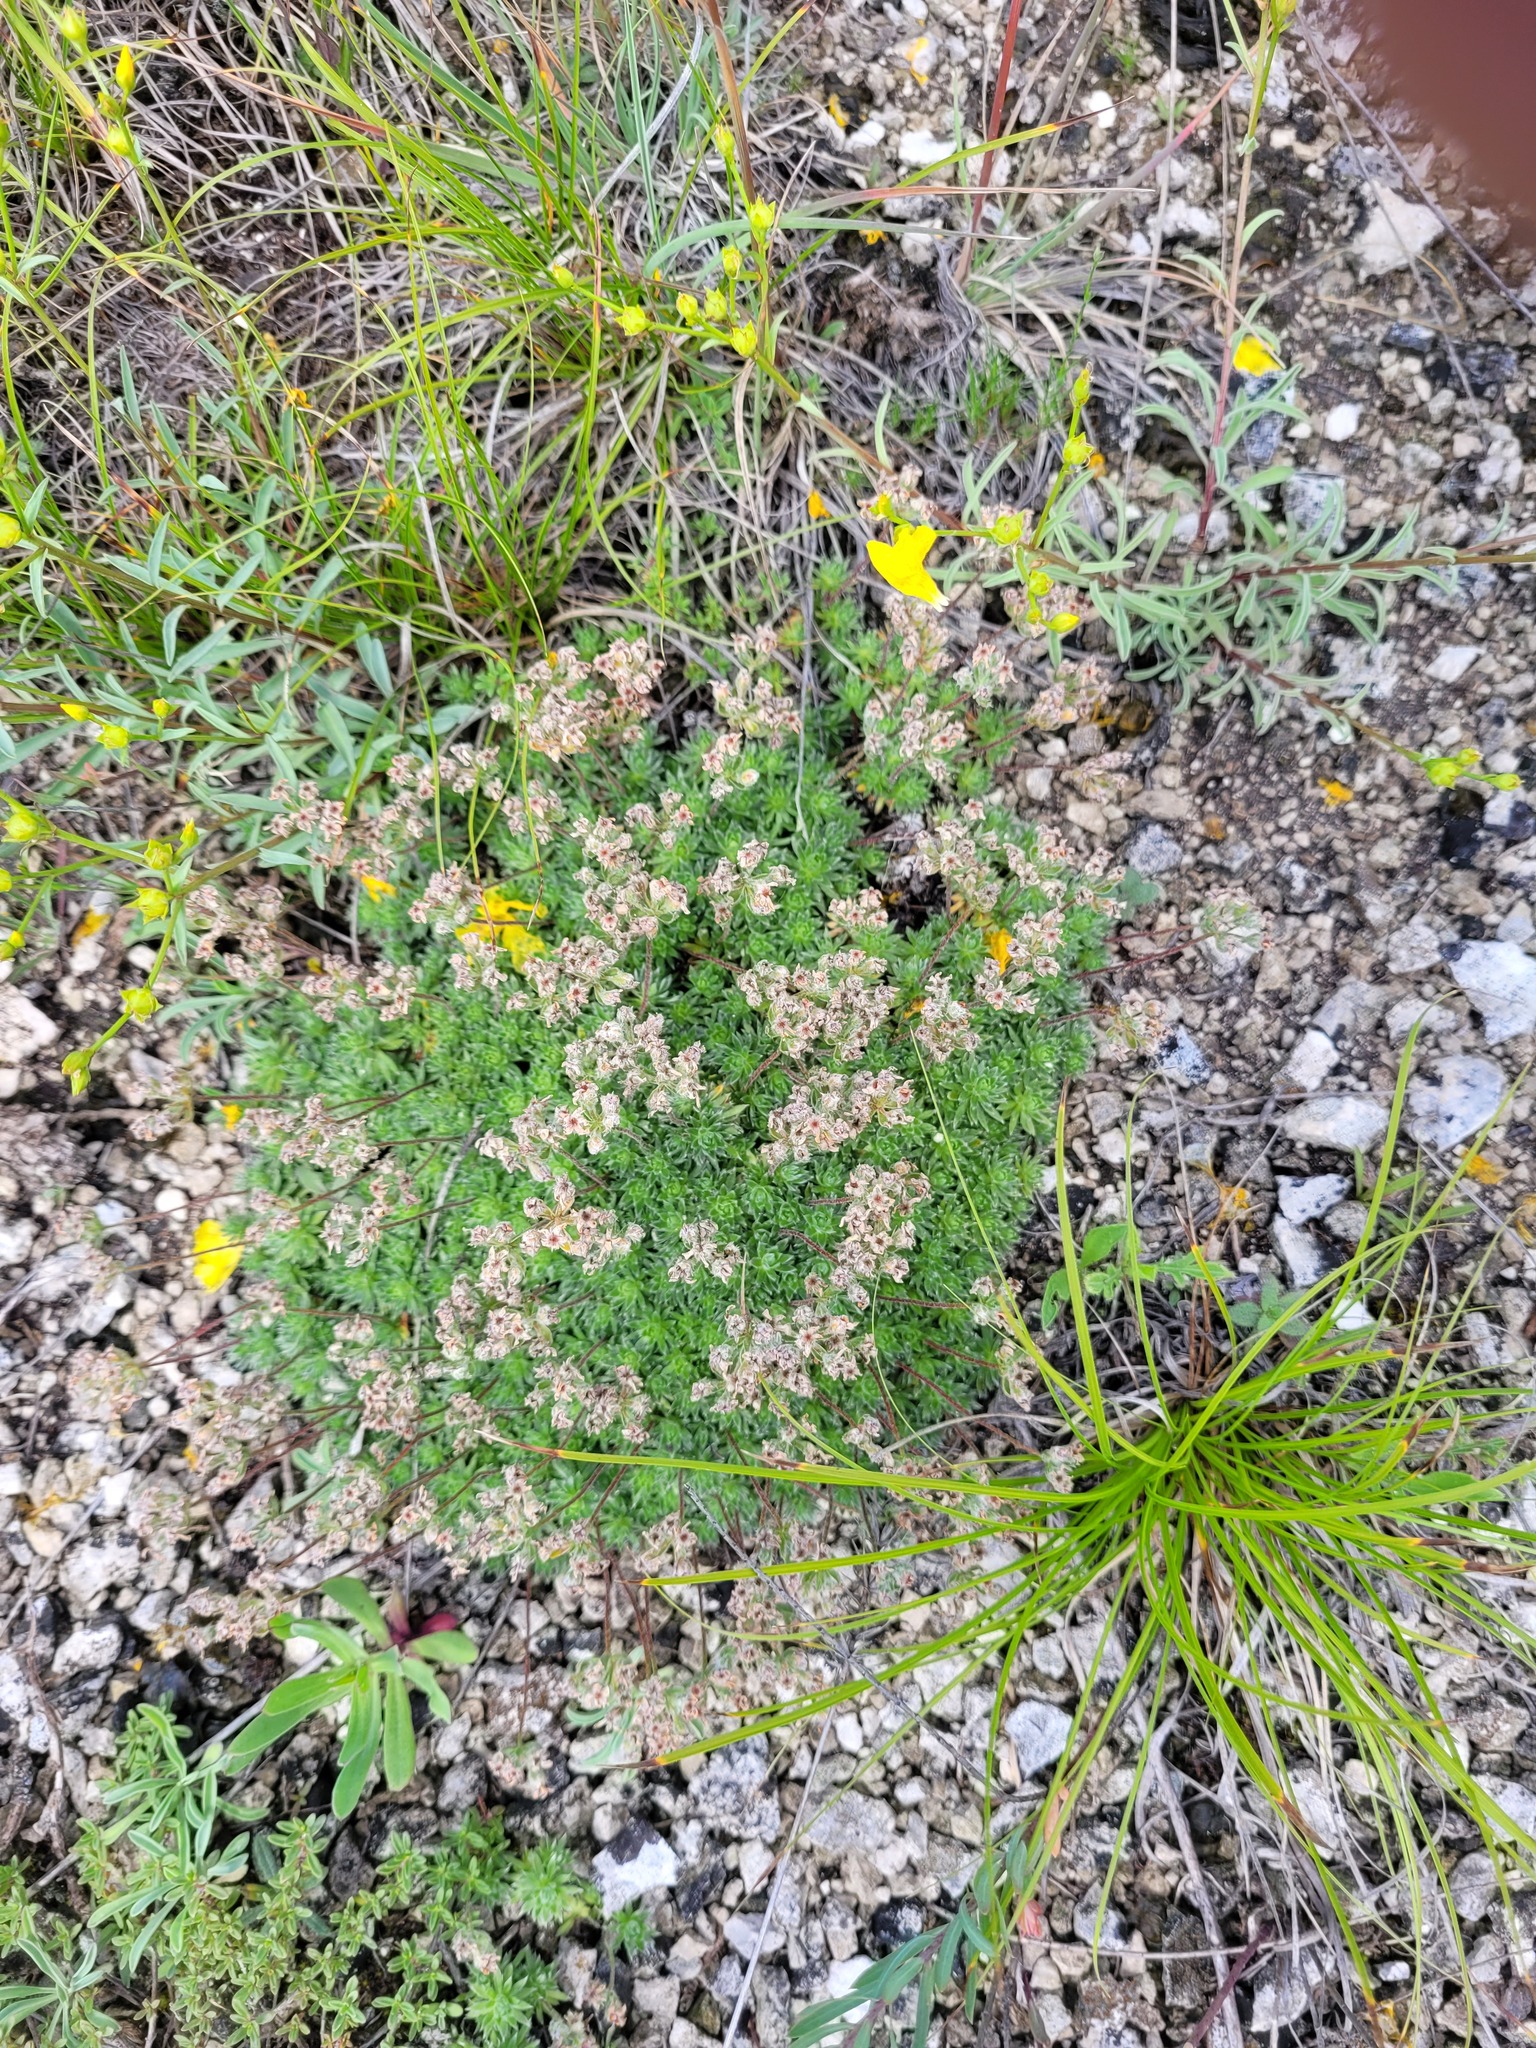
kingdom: Plantae
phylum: Tracheophyta
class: Magnoliopsida
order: Ericales
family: Primulaceae
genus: Androsace
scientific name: Androsace villosa
